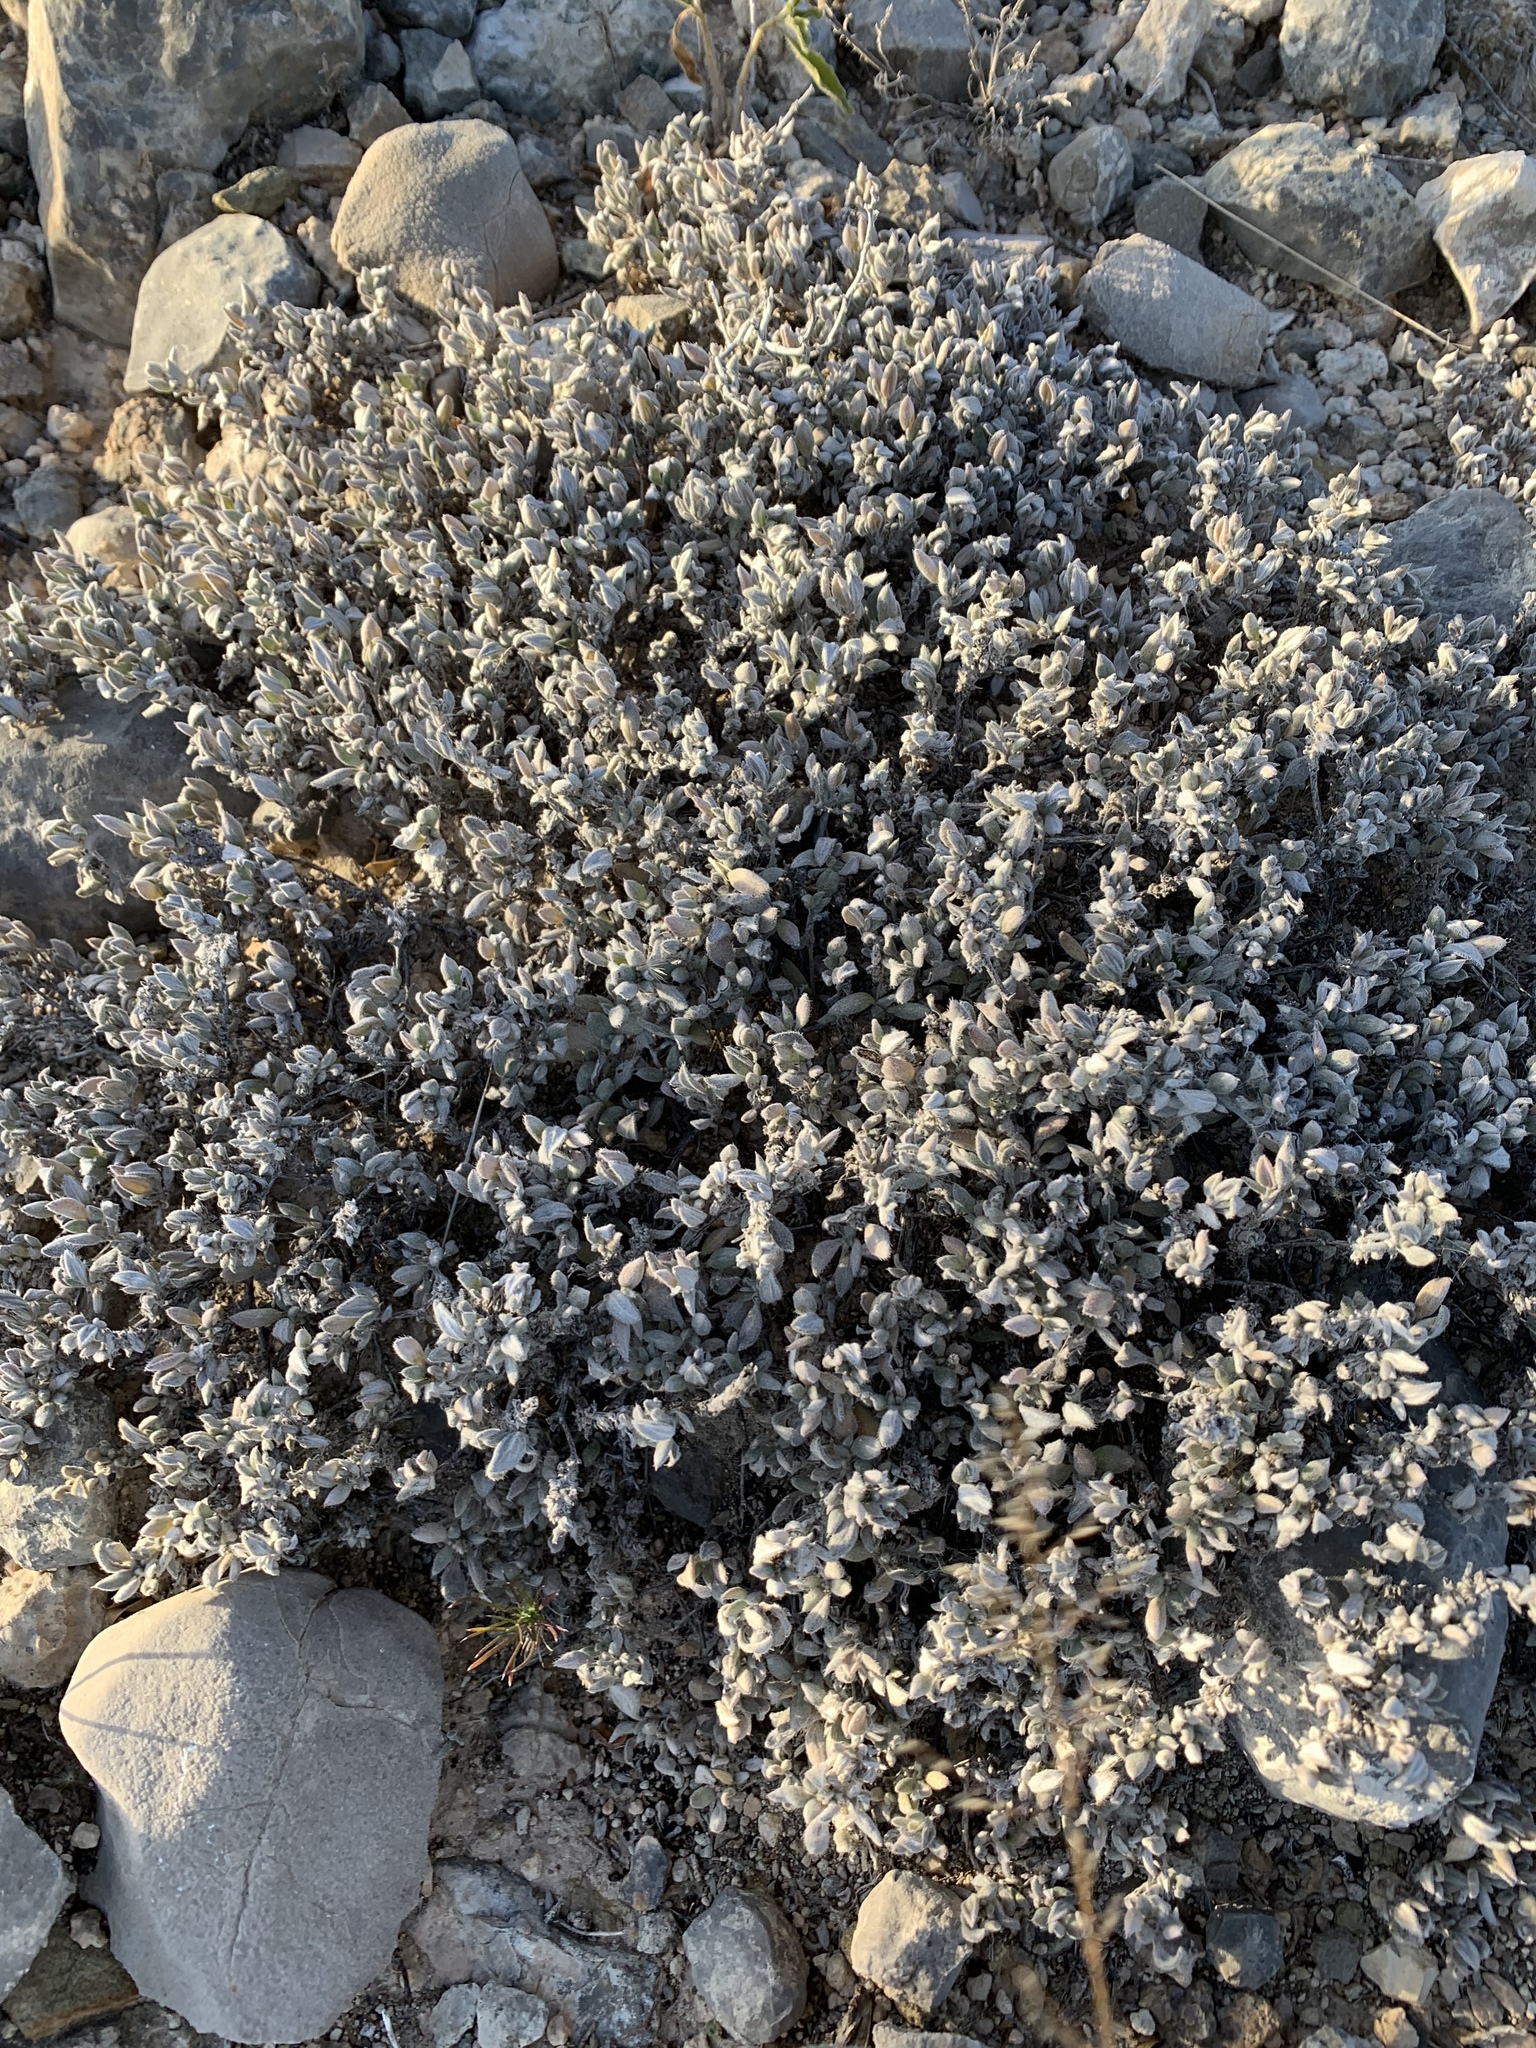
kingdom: Plantae
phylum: Tracheophyta
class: Magnoliopsida
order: Boraginales
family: Ehretiaceae
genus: Tiquilia
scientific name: Tiquilia canescens
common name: Hairy tiquilia
